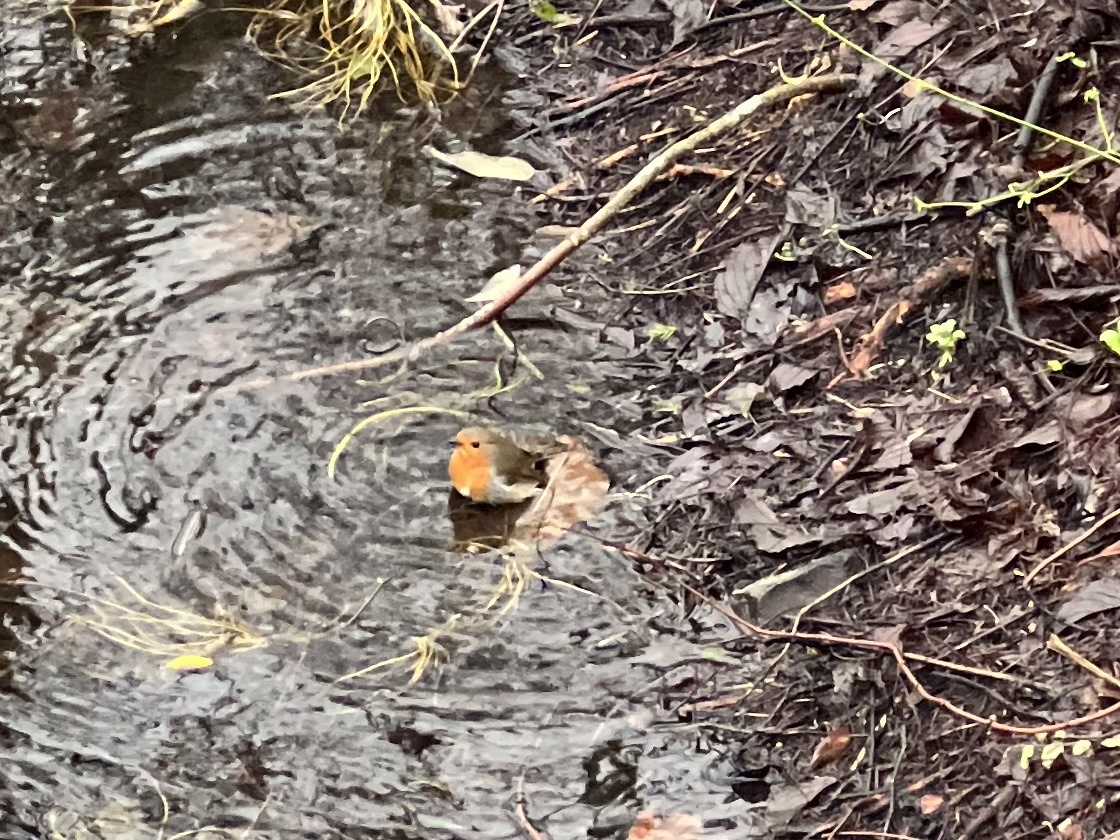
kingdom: Animalia
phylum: Chordata
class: Aves
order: Passeriformes
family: Muscicapidae
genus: Erithacus
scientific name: Erithacus rubecula
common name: European robin
